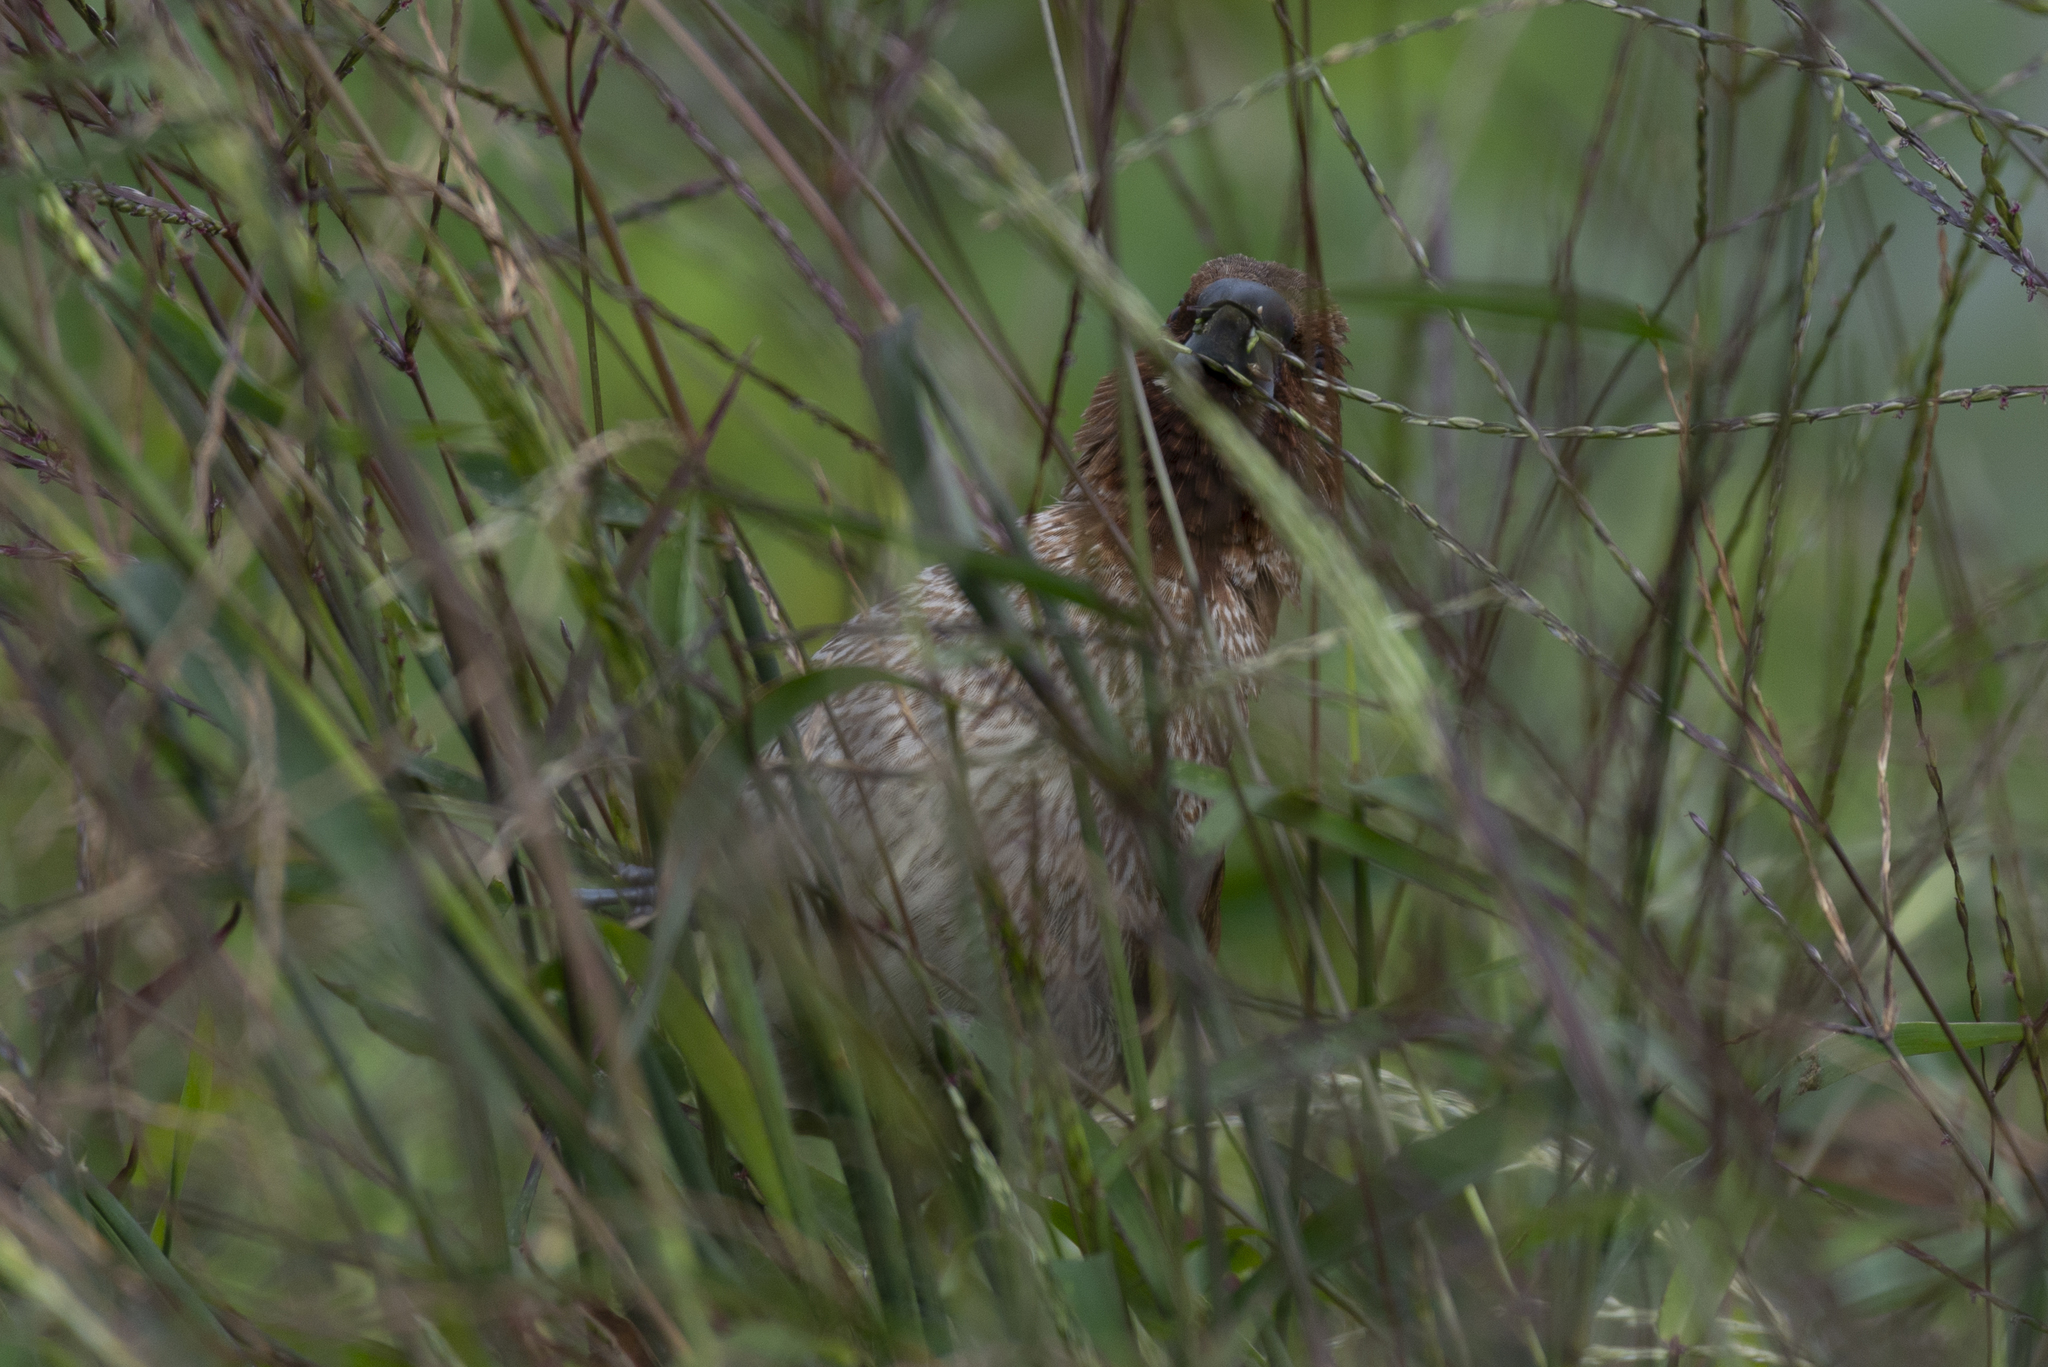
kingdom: Animalia
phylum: Chordata
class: Aves
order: Passeriformes
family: Estrildidae
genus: Lonchura
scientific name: Lonchura punctulata
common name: Scaly-breasted munia
